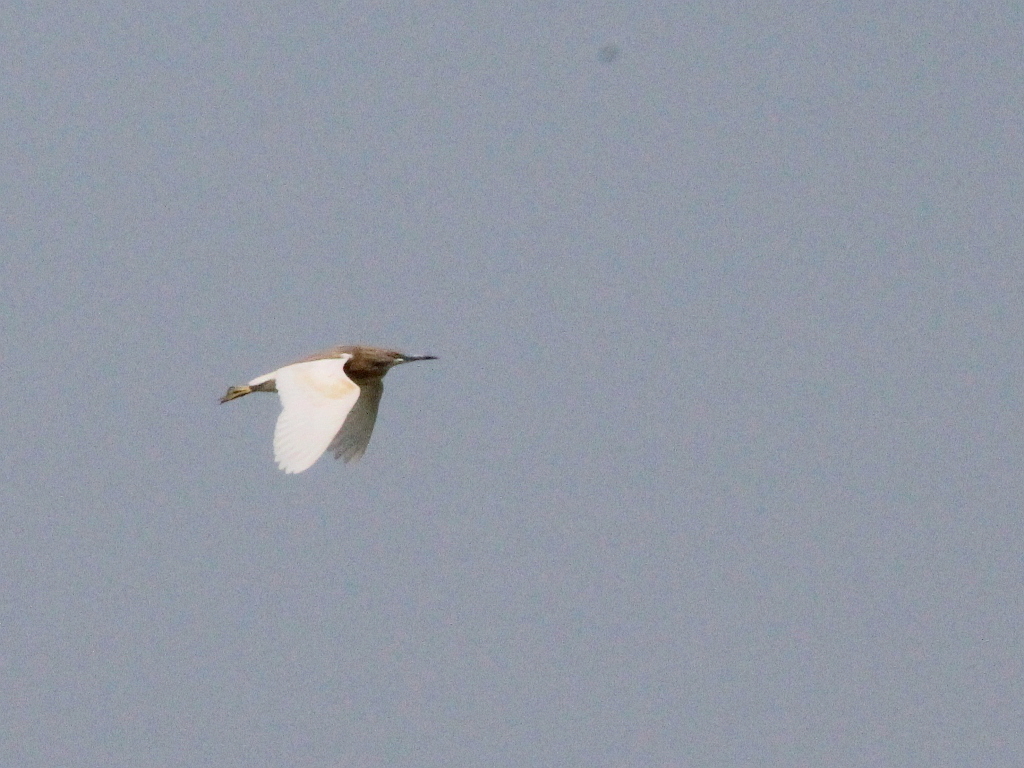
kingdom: Animalia
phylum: Chordata
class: Aves
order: Pelecaniformes
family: Ardeidae
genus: Ardeola
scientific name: Ardeola ralloides
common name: Squacco heron
